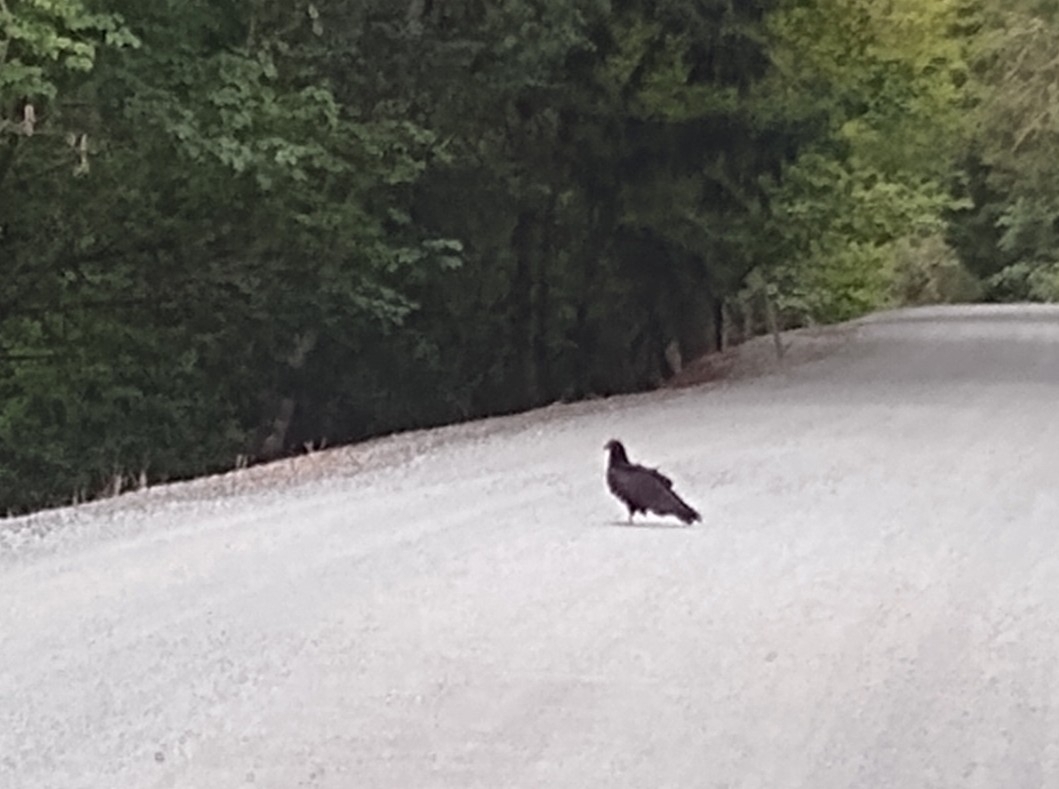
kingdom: Animalia
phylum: Chordata
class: Aves
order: Accipitriformes
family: Cathartidae
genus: Cathartes
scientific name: Cathartes aura
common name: Turkey vulture
